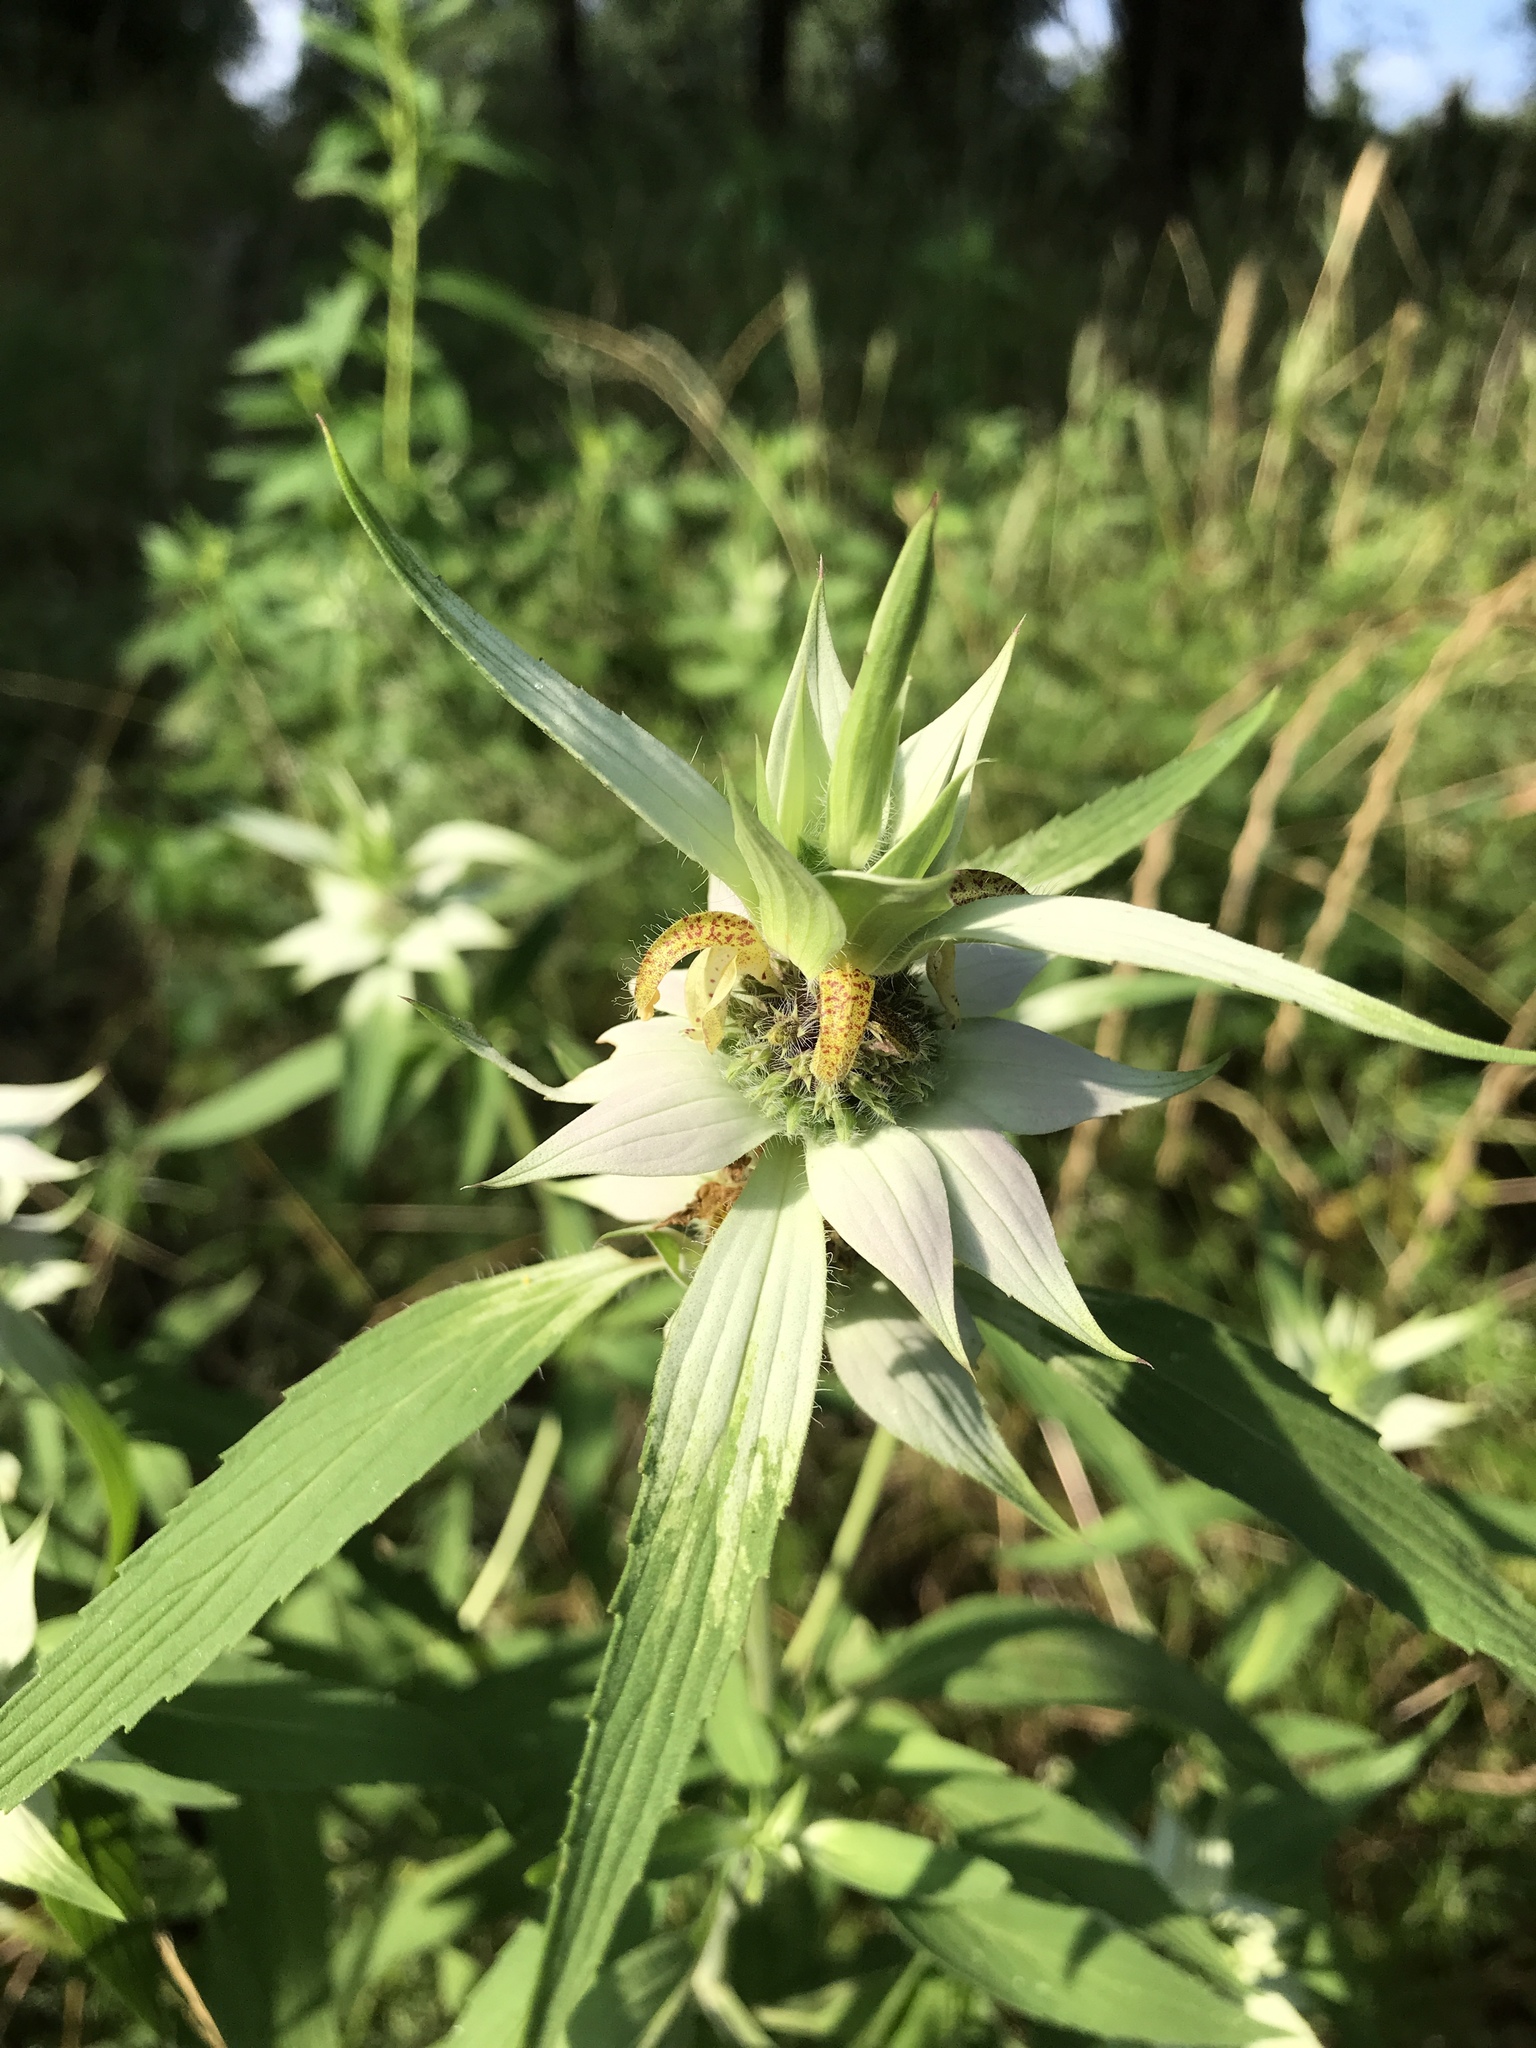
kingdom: Plantae
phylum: Tracheophyta
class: Magnoliopsida
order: Lamiales
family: Lamiaceae
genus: Monarda
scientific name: Monarda punctata
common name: Dotted monarda
